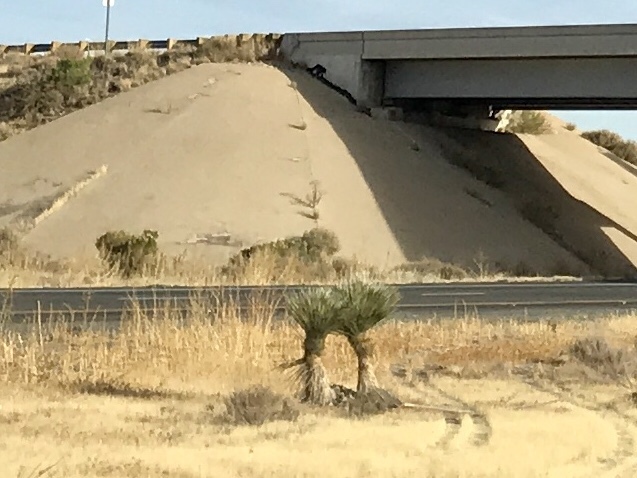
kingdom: Plantae
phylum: Tracheophyta
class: Liliopsida
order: Asparagales
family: Asparagaceae
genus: Yucca
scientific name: Yucca elata
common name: Palmella
